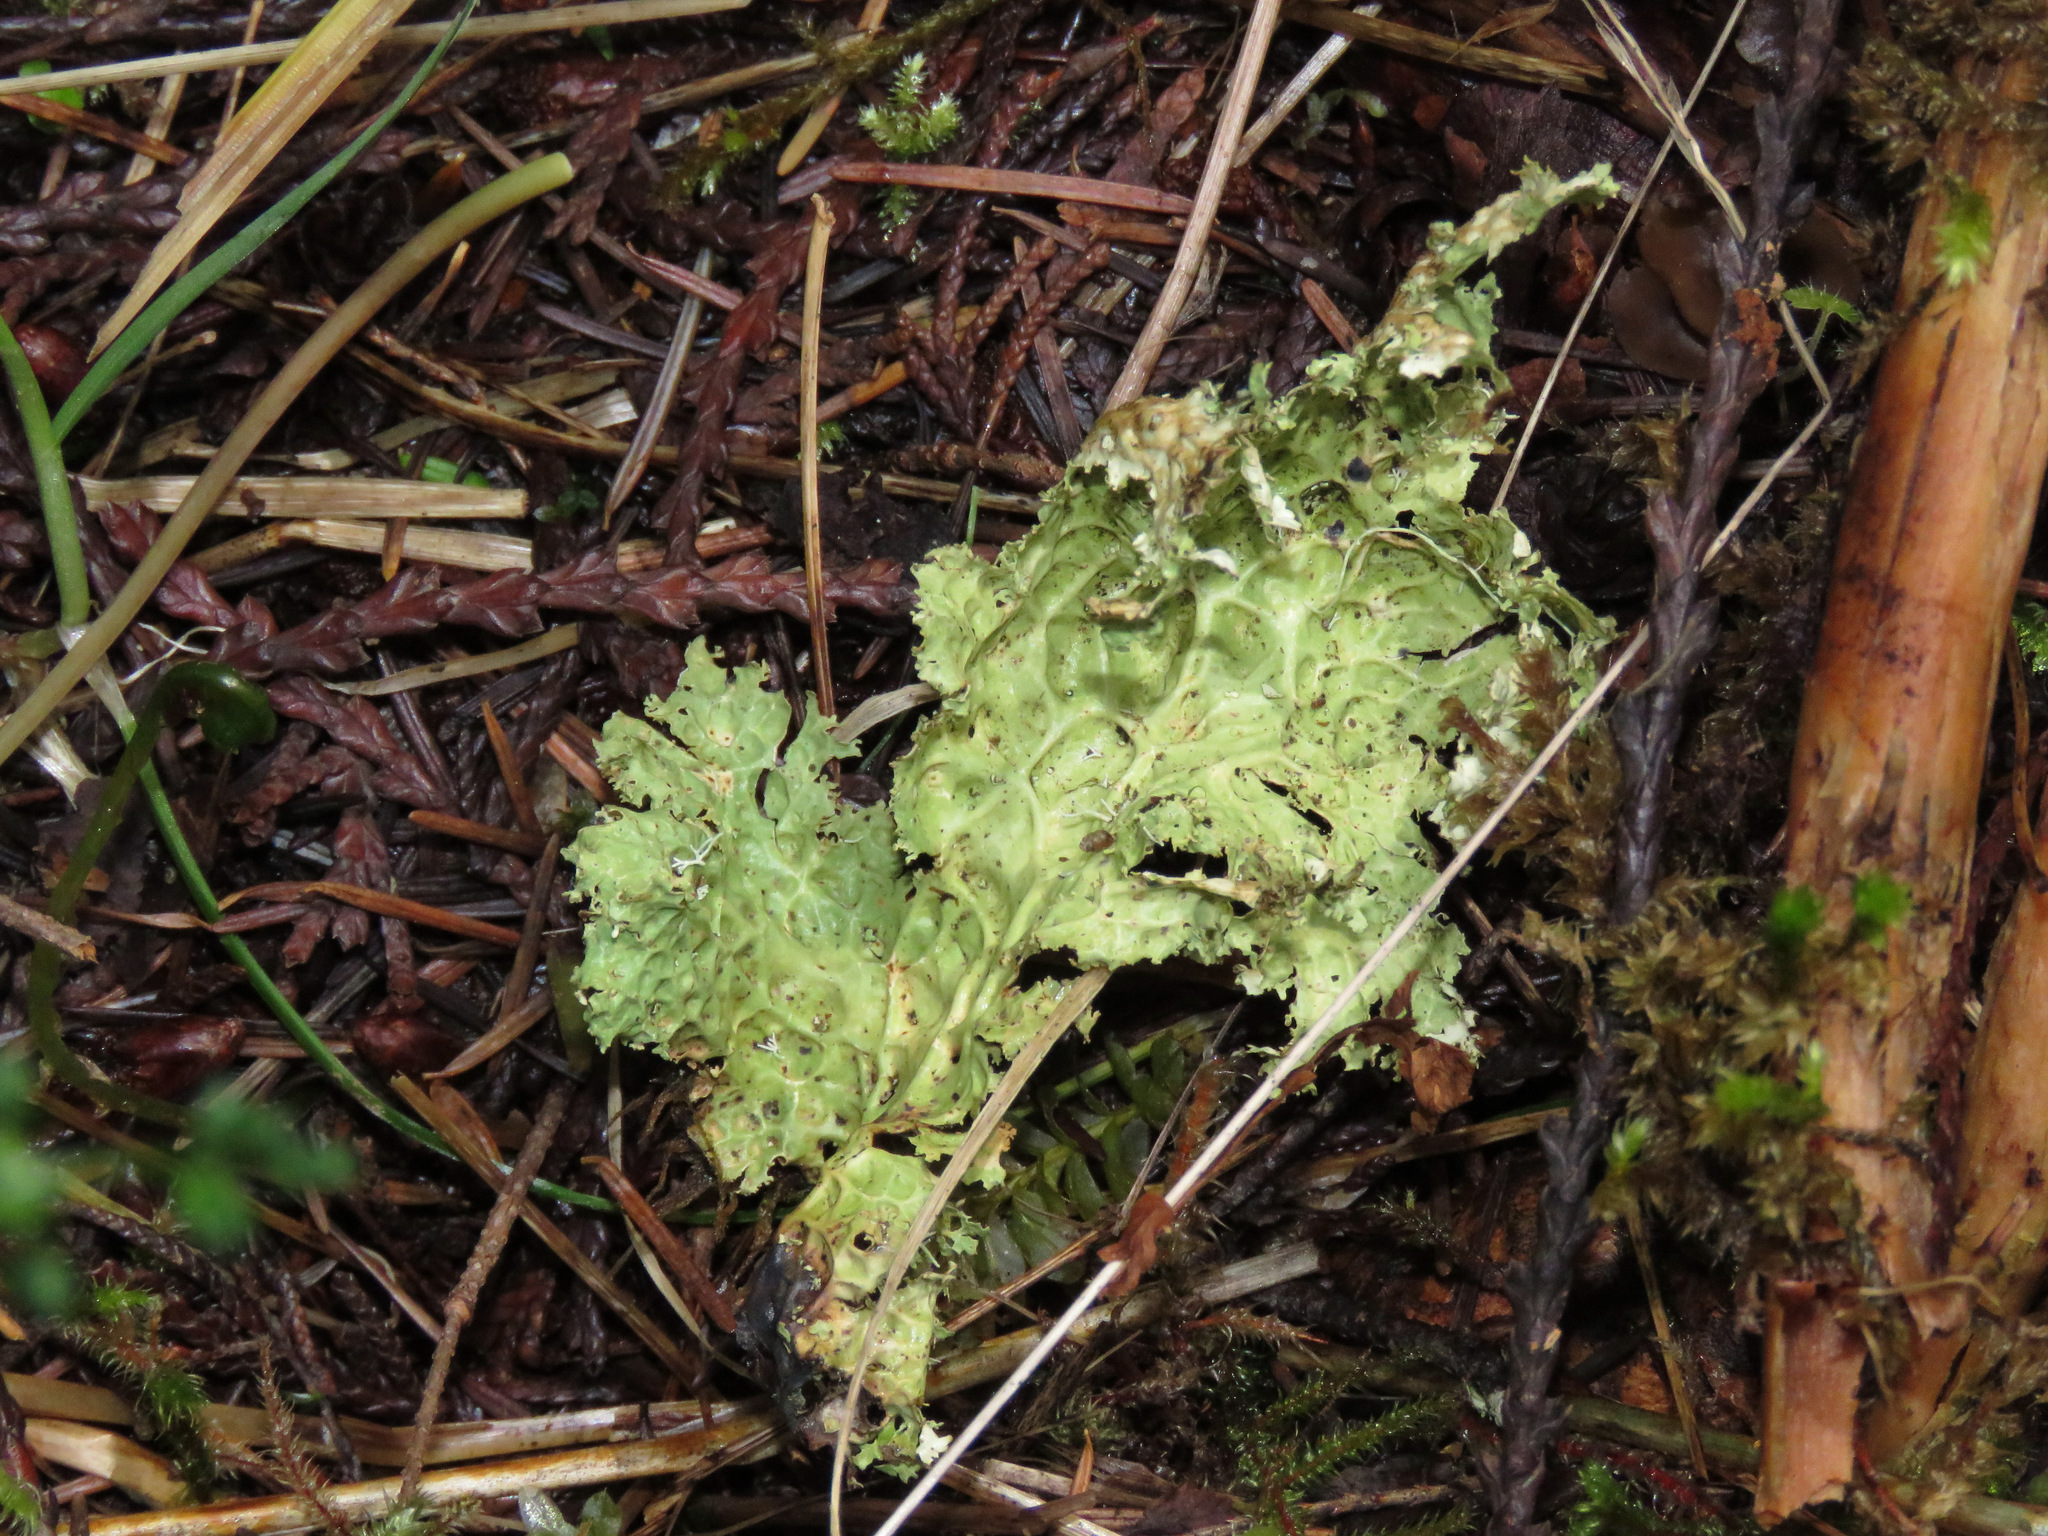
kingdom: Fungi
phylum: Ascomycota
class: Lecanoromycetes
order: Peltigerales
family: Lobariaceae
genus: Lobaria
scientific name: Lobaria oregana
